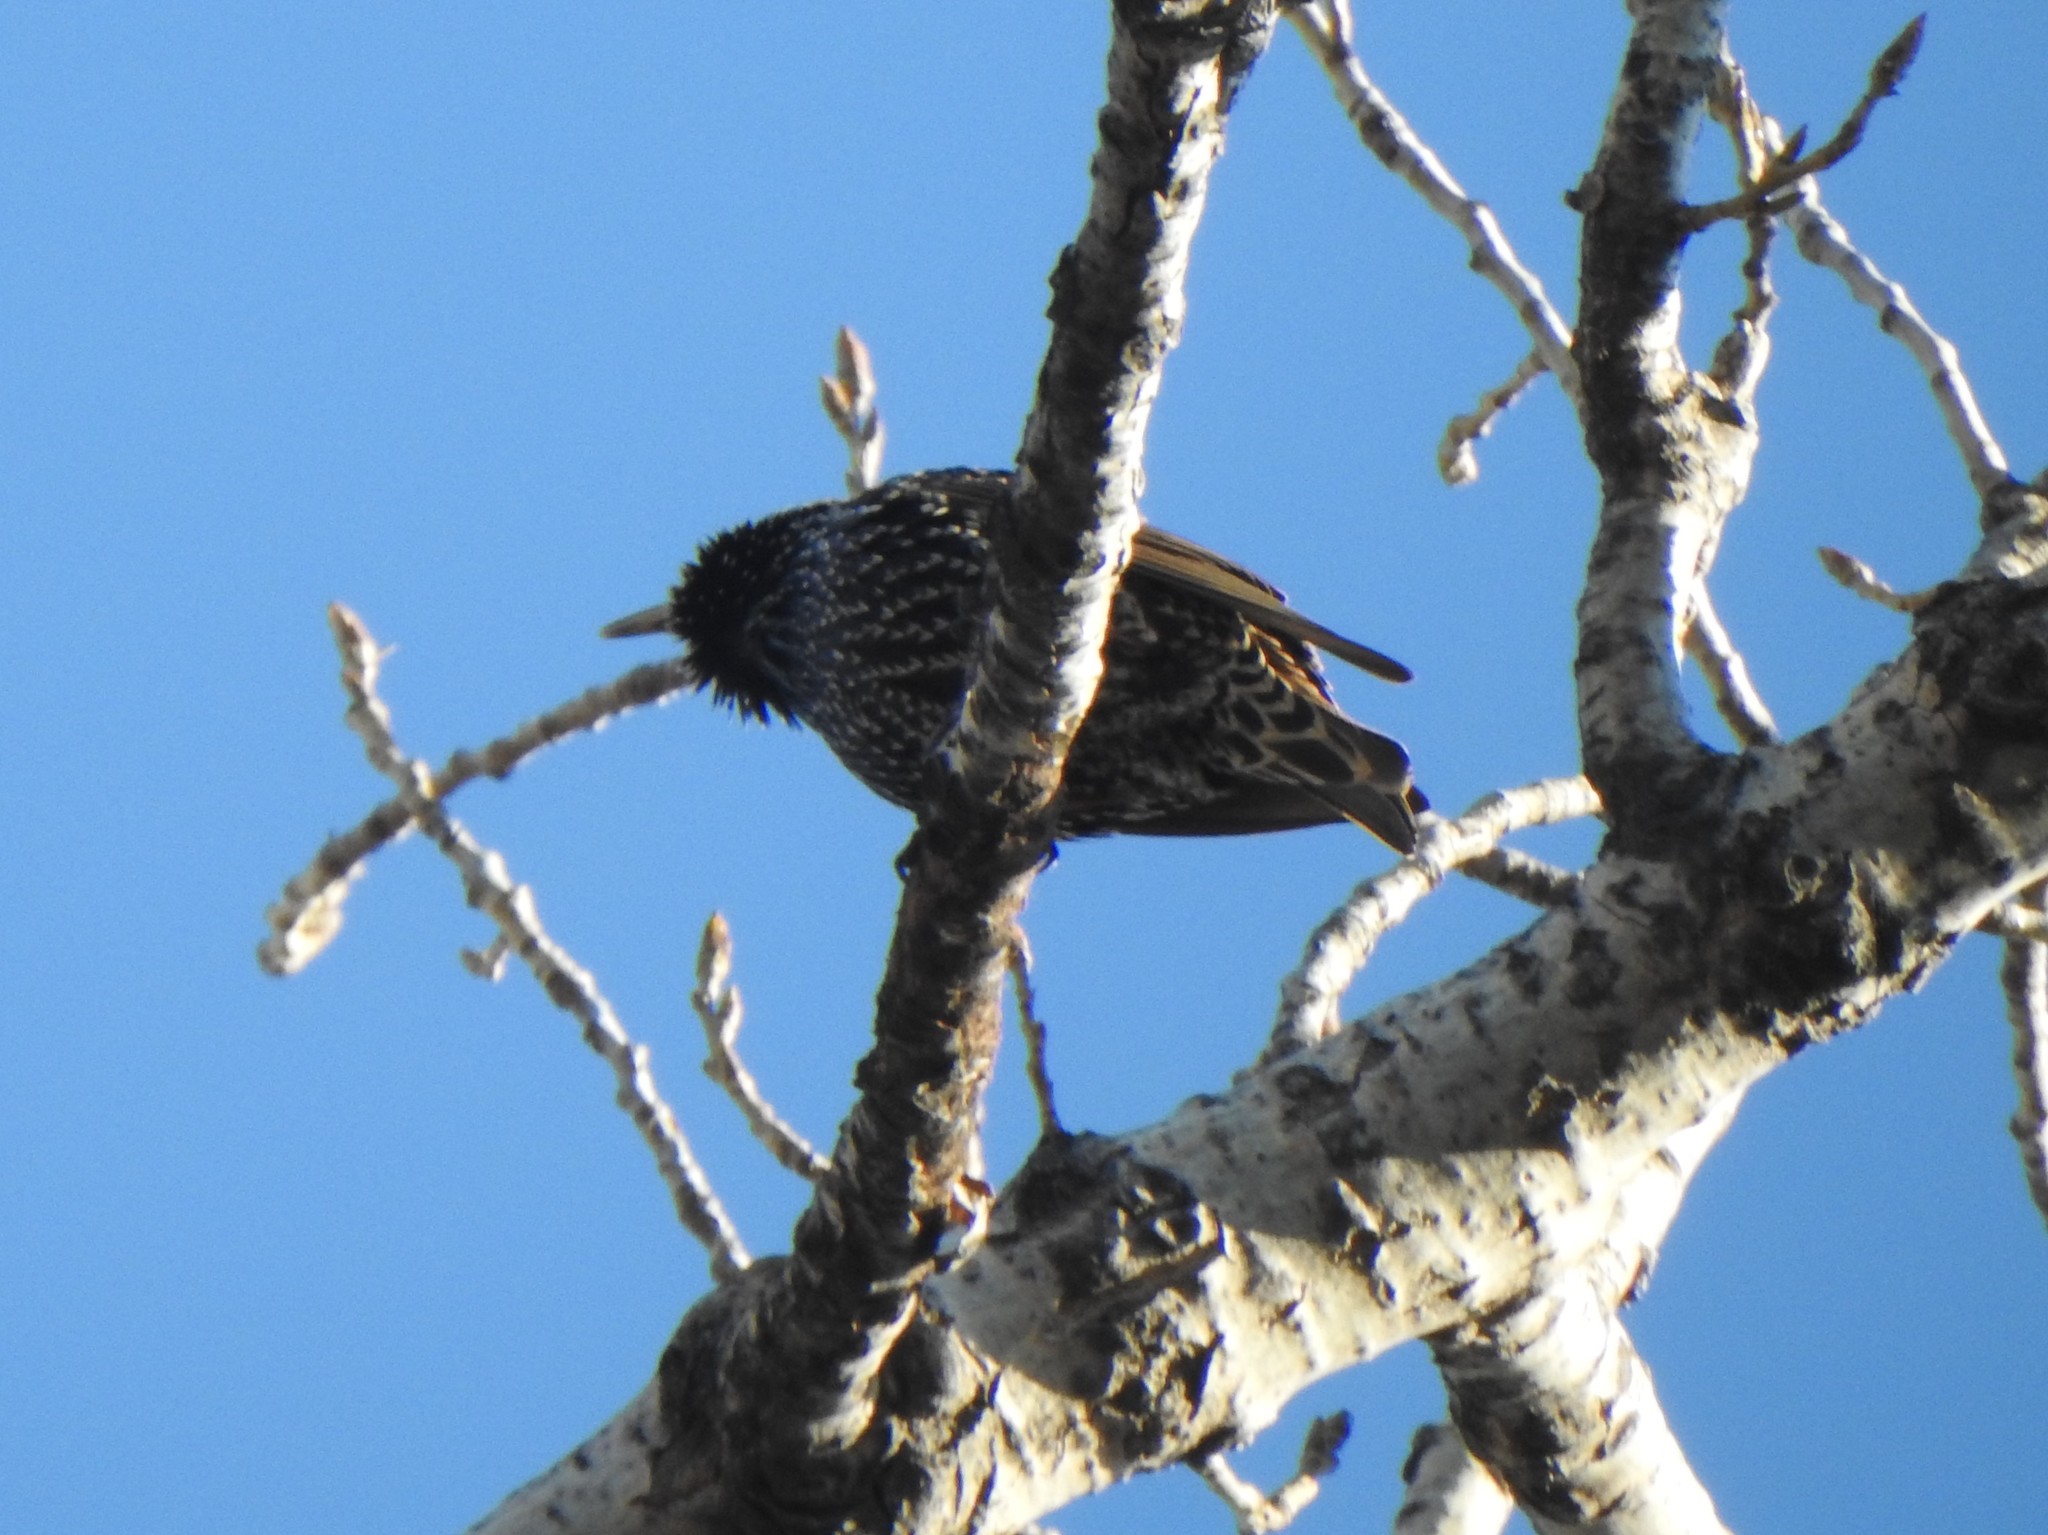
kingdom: Animalia
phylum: Chordata
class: Aves
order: Passeriformes
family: Sturnidae
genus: Sturnus
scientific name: Sturnus vulgaris
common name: Common starling
